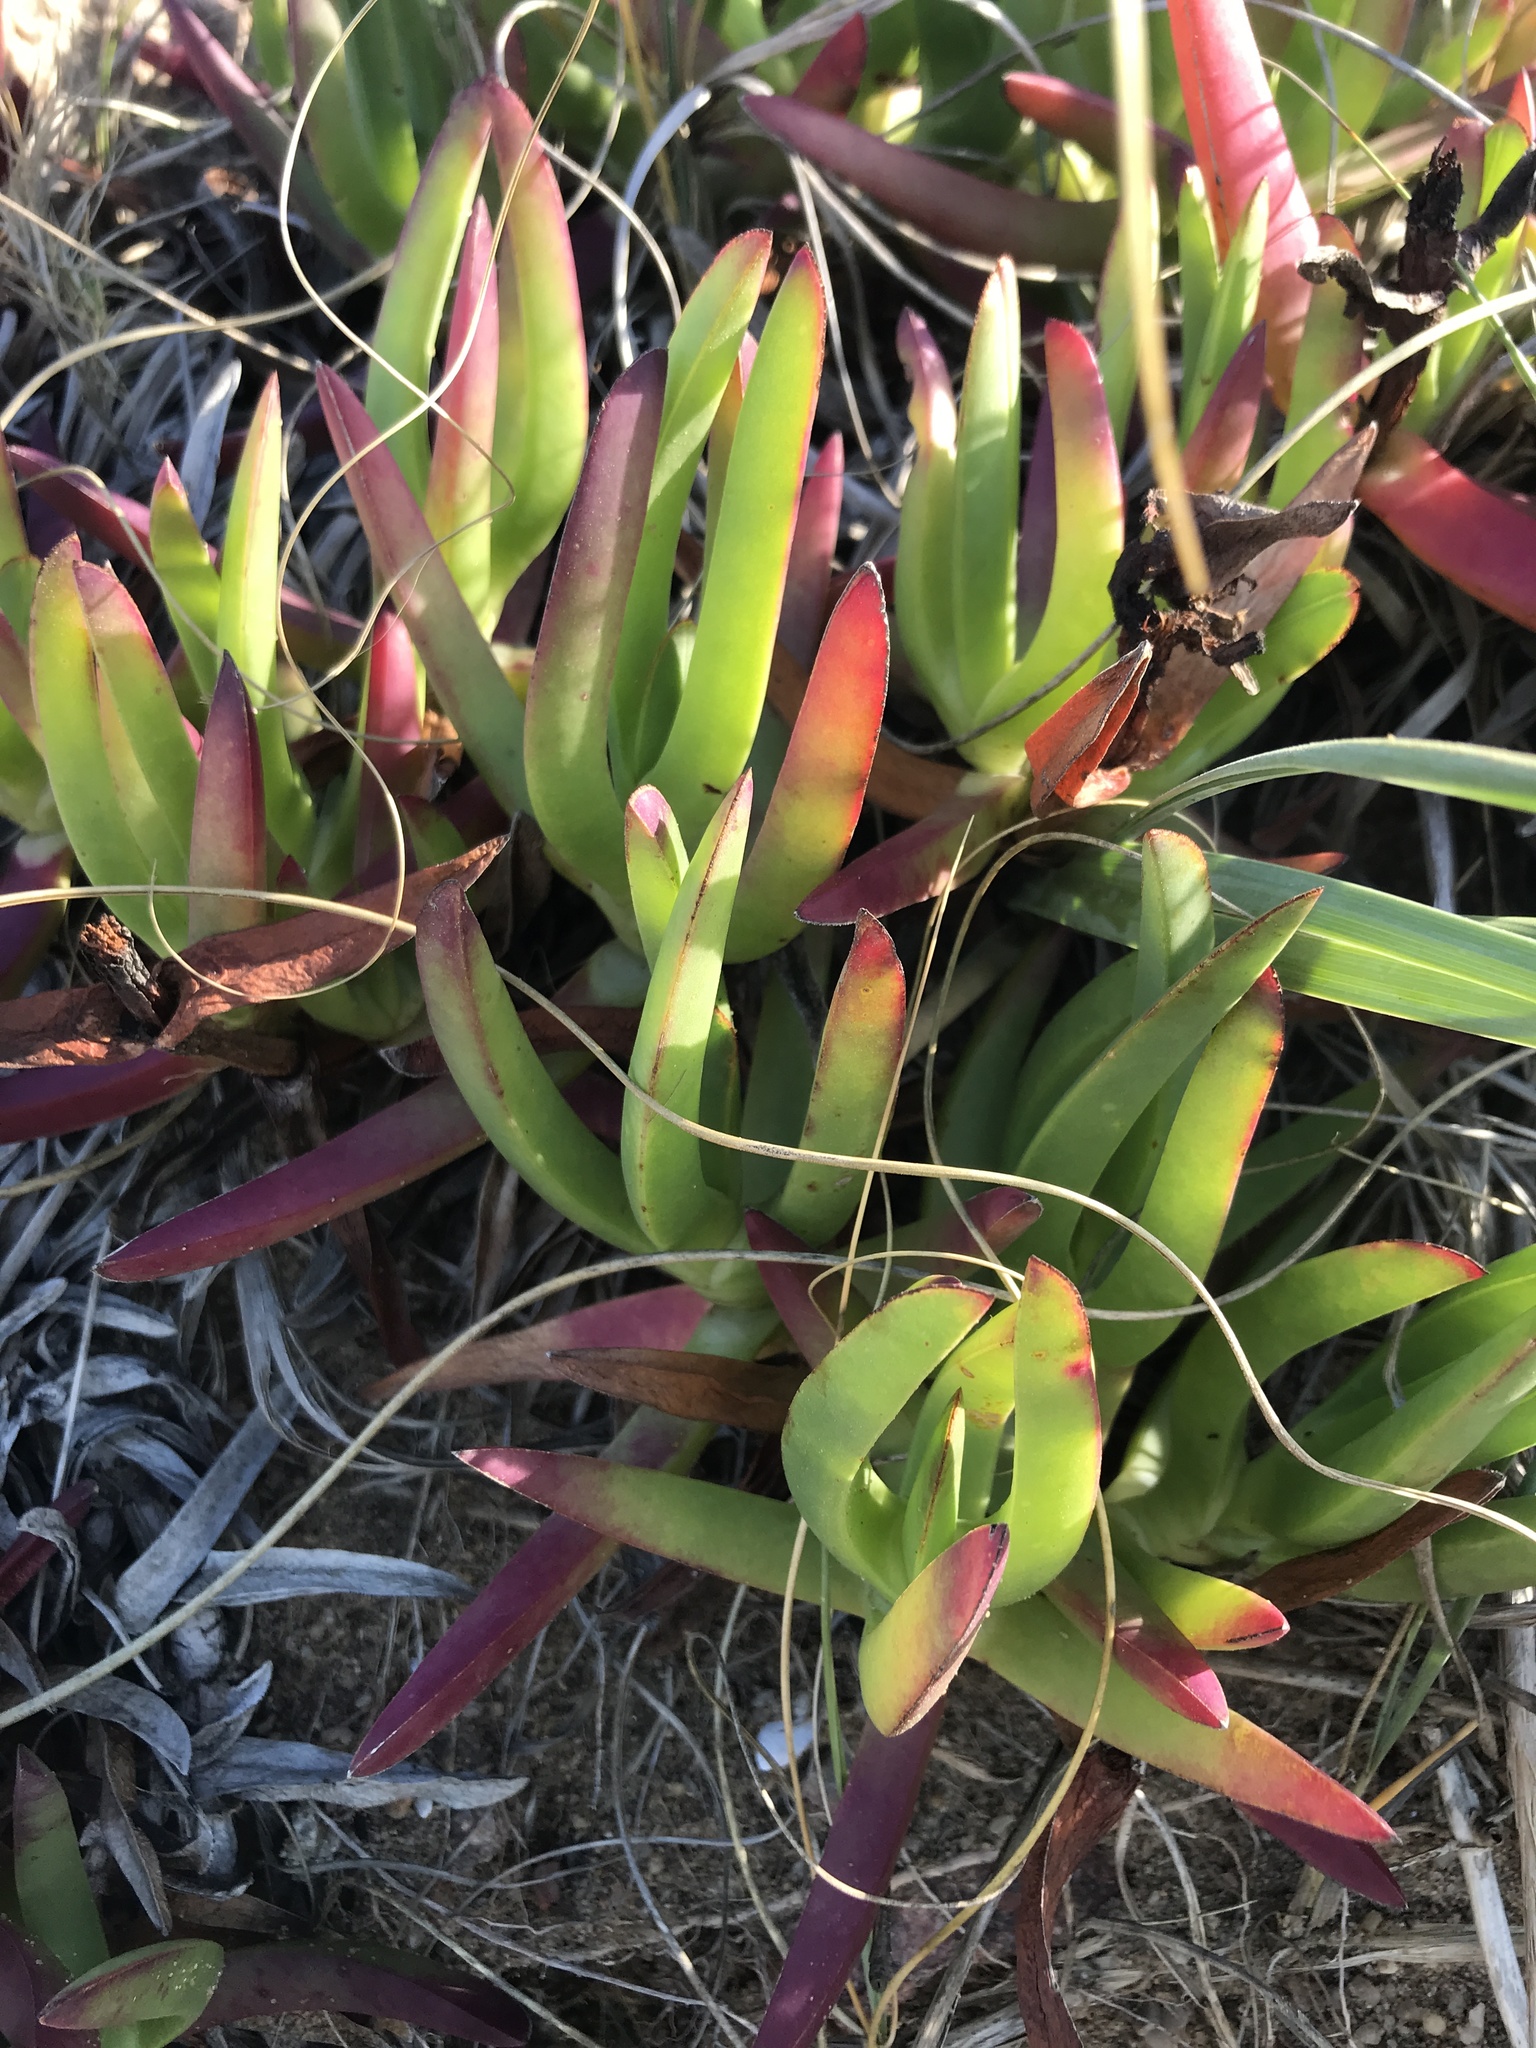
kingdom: Plantae
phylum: Tracheophyta
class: Magnoliopsida
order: Caryophyllales
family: Aizoaceae
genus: Carpobrotus
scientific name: Carpobrotus edulis
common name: Hottentot-fig
